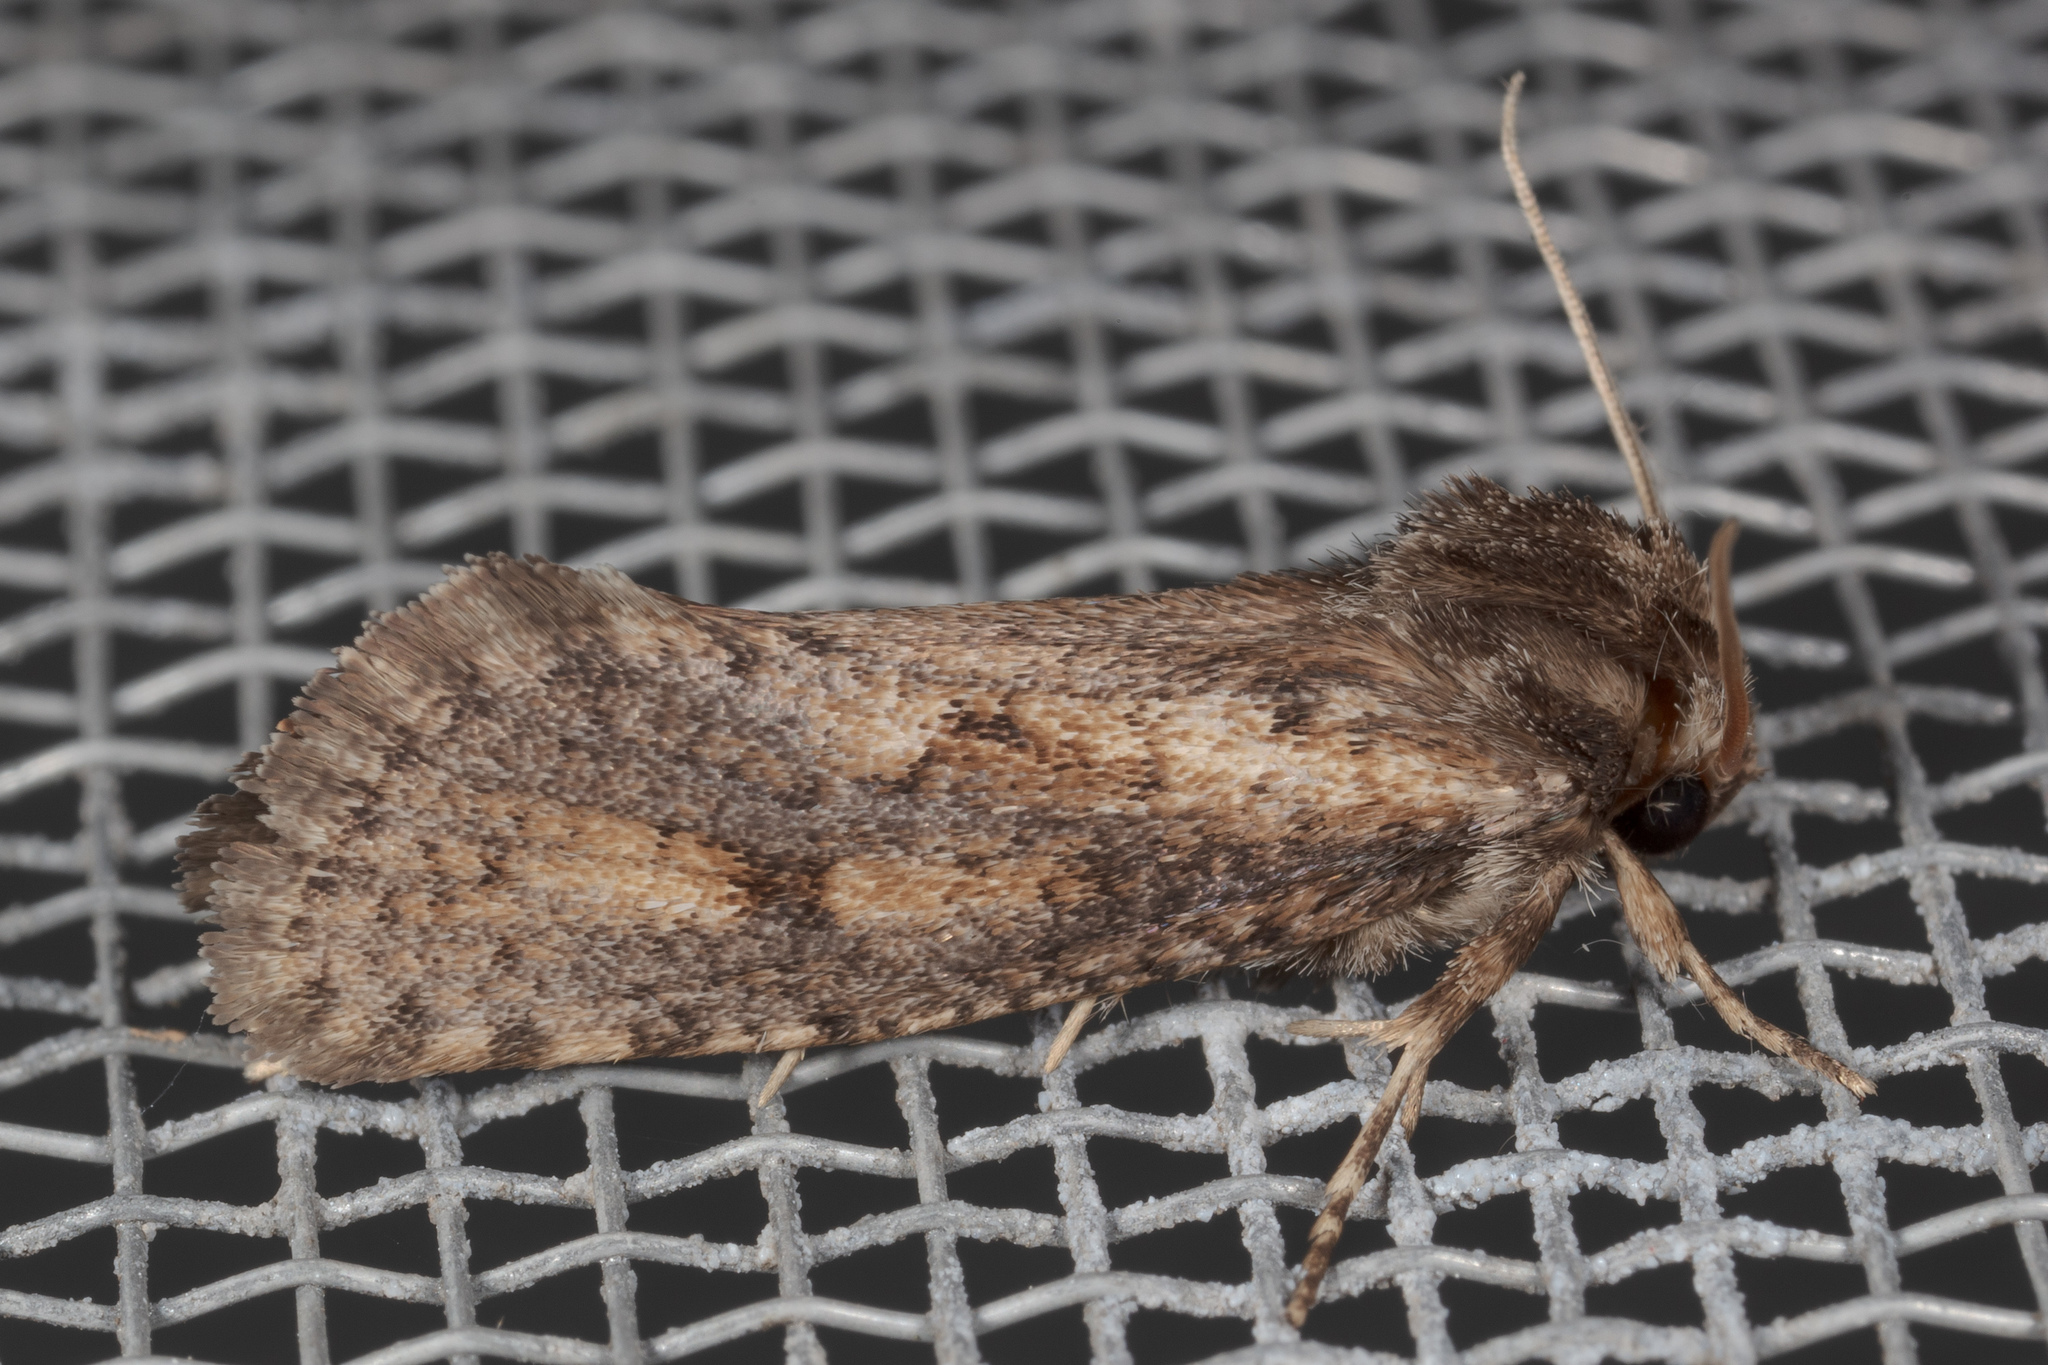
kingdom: Animalia
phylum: Arthropoda
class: Insecta
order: Lepidoptera
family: Tineidae
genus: Acrolophus
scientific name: Acrolophus popeanella
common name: Clemens' grass tubeworm moth
